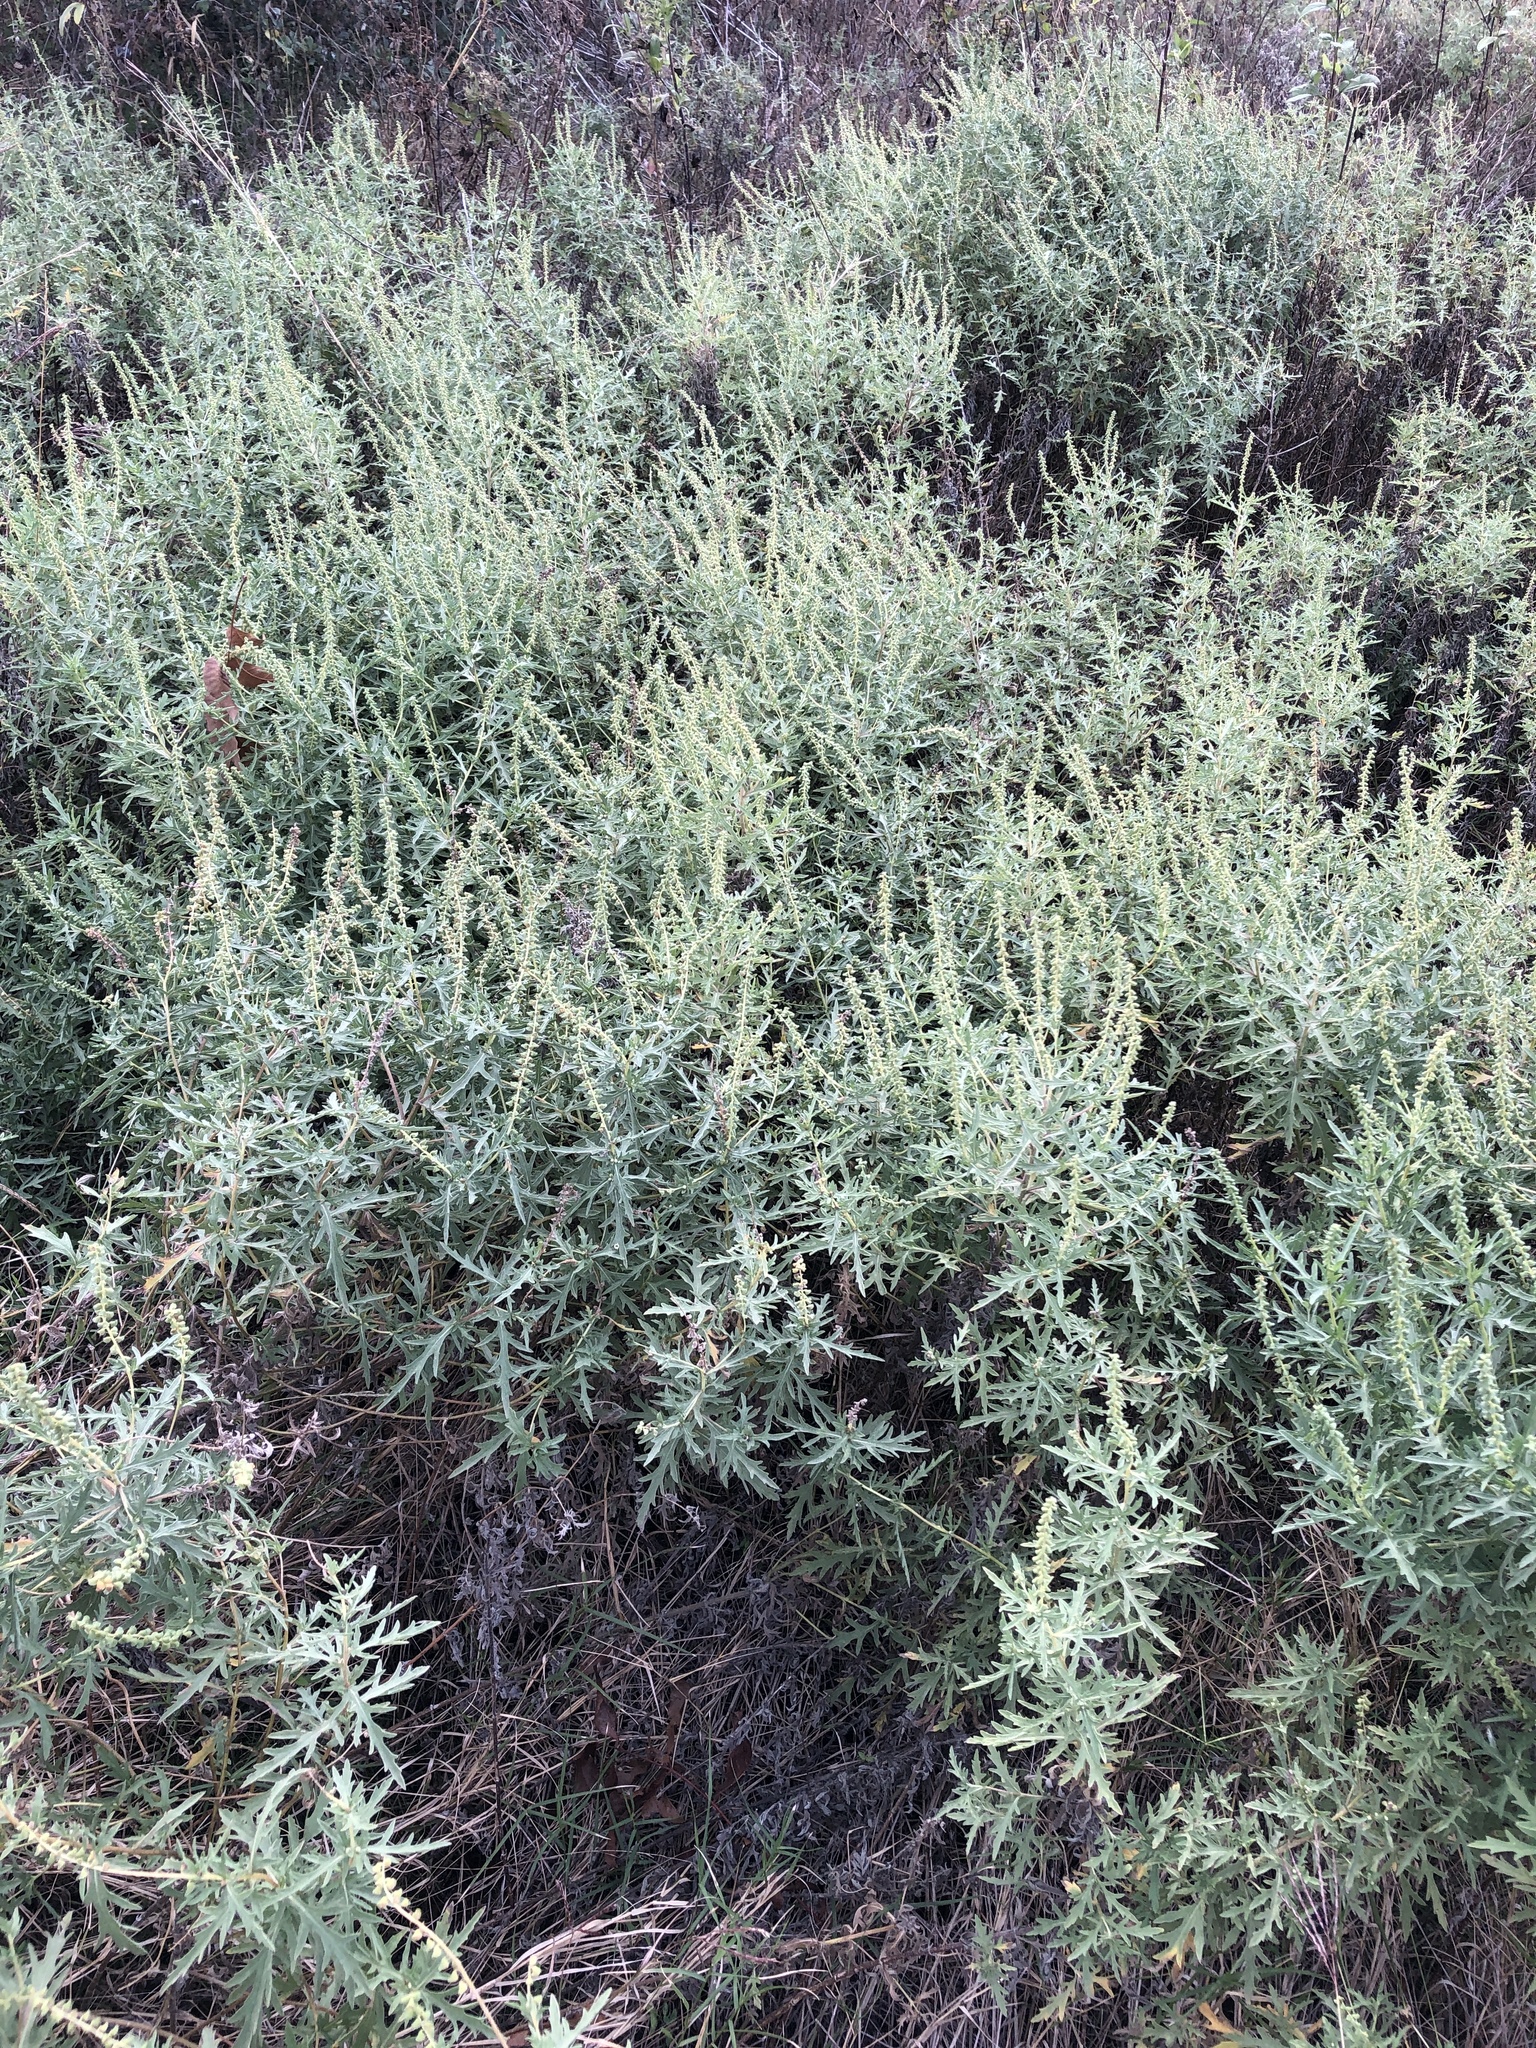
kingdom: Plantae
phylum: Tracheophyta
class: Magnoliopsida
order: Asterales
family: Asteraceae
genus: Ambrosia
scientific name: Ambrosia psilostachya
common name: Perennial ragweed
